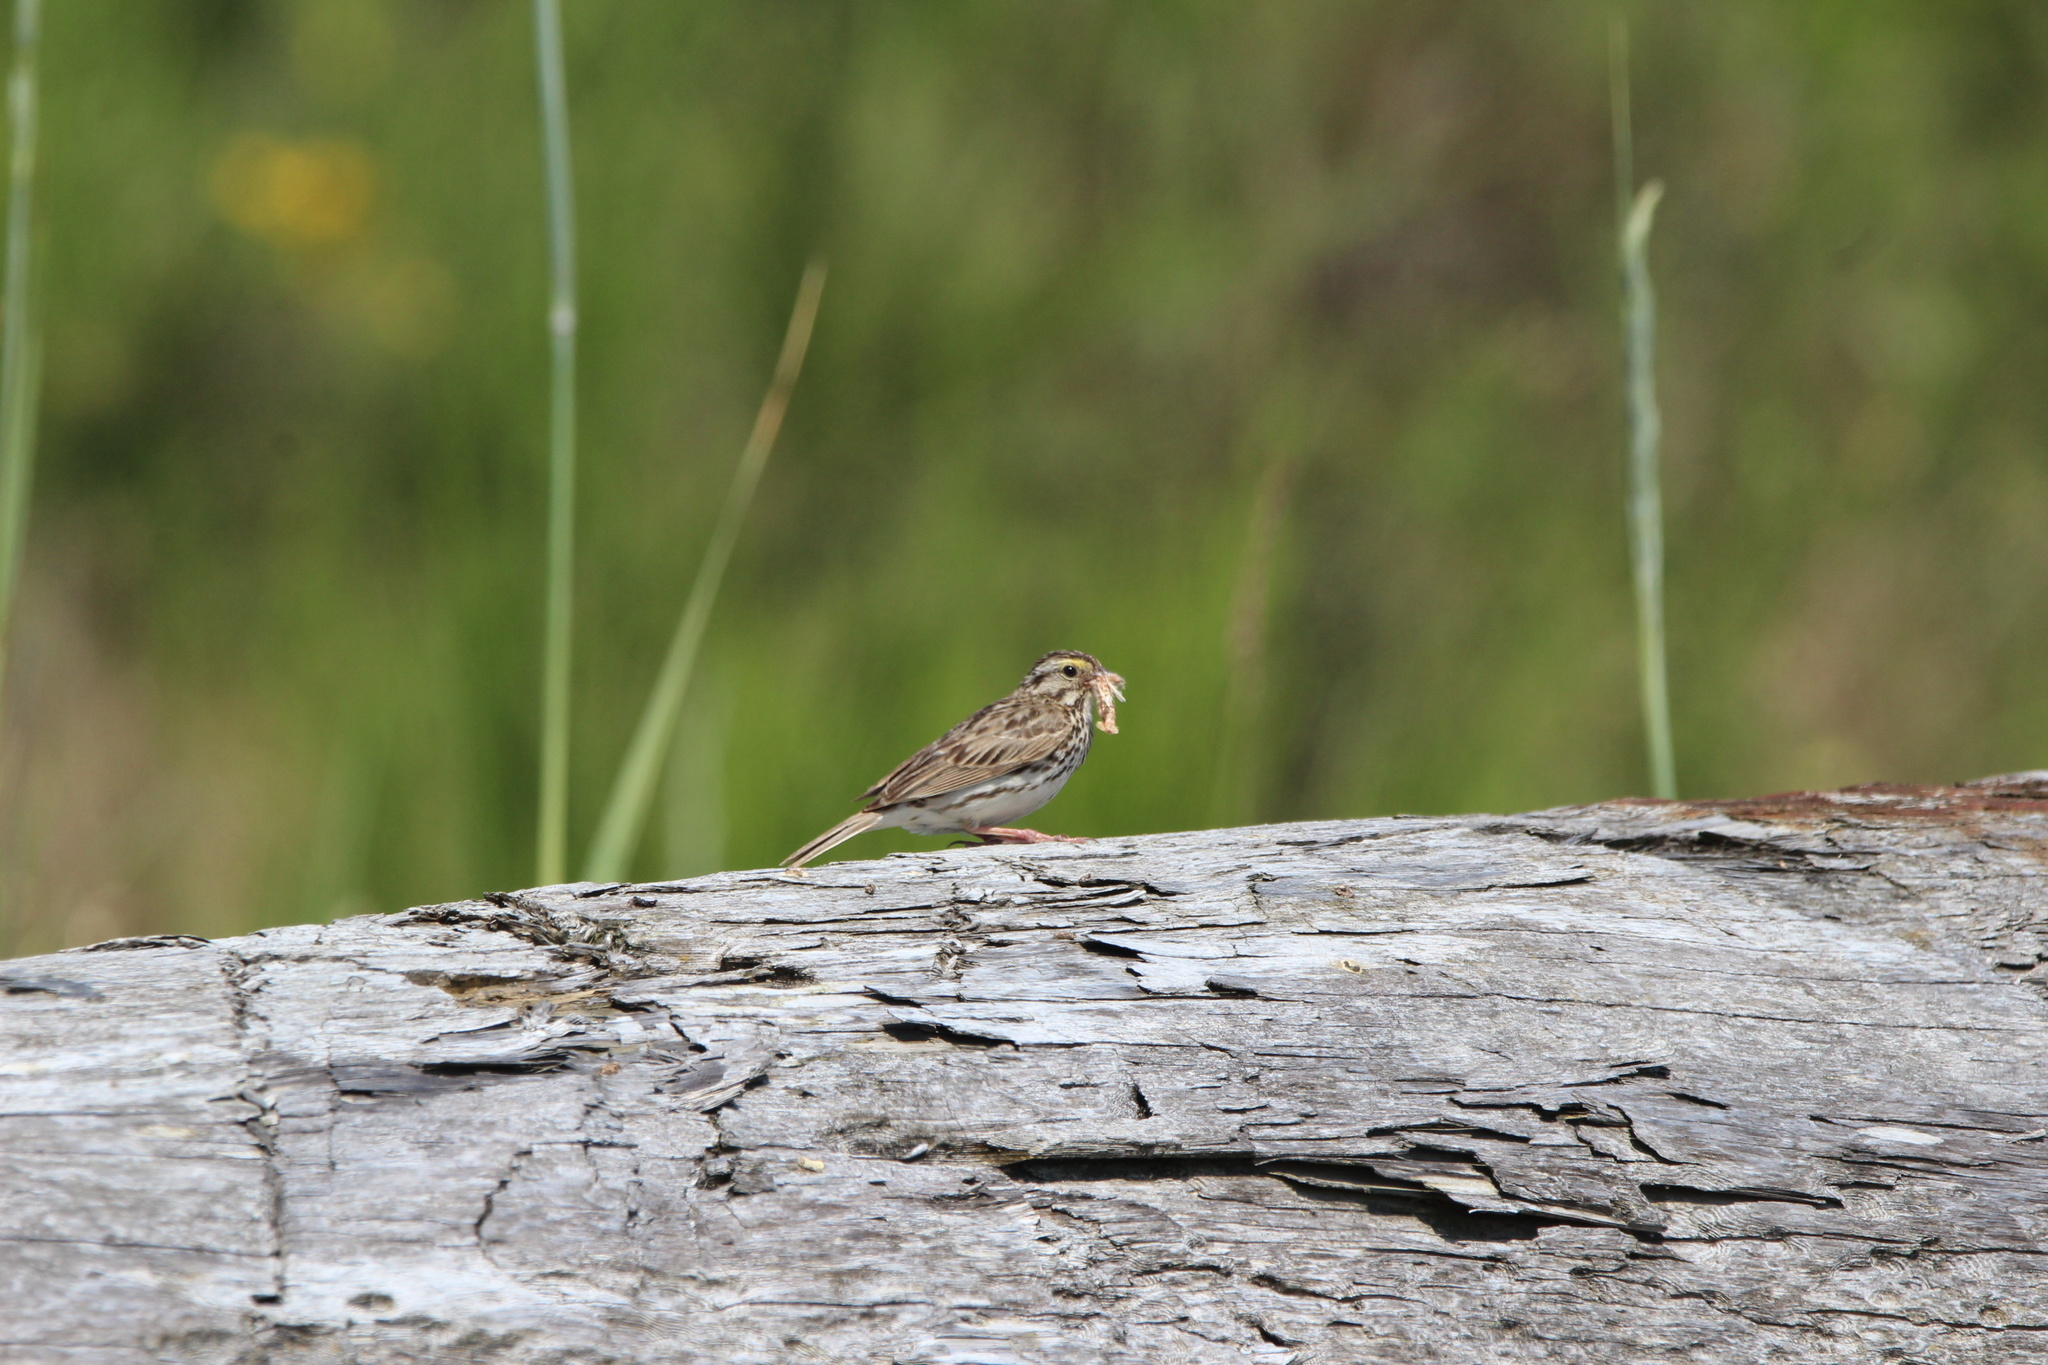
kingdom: Animalia
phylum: Chordata
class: Aves
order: Passeriformes
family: Passerellidae
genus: Passerculus
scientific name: Passerculus sandwichensis
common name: Savannah sparrow
